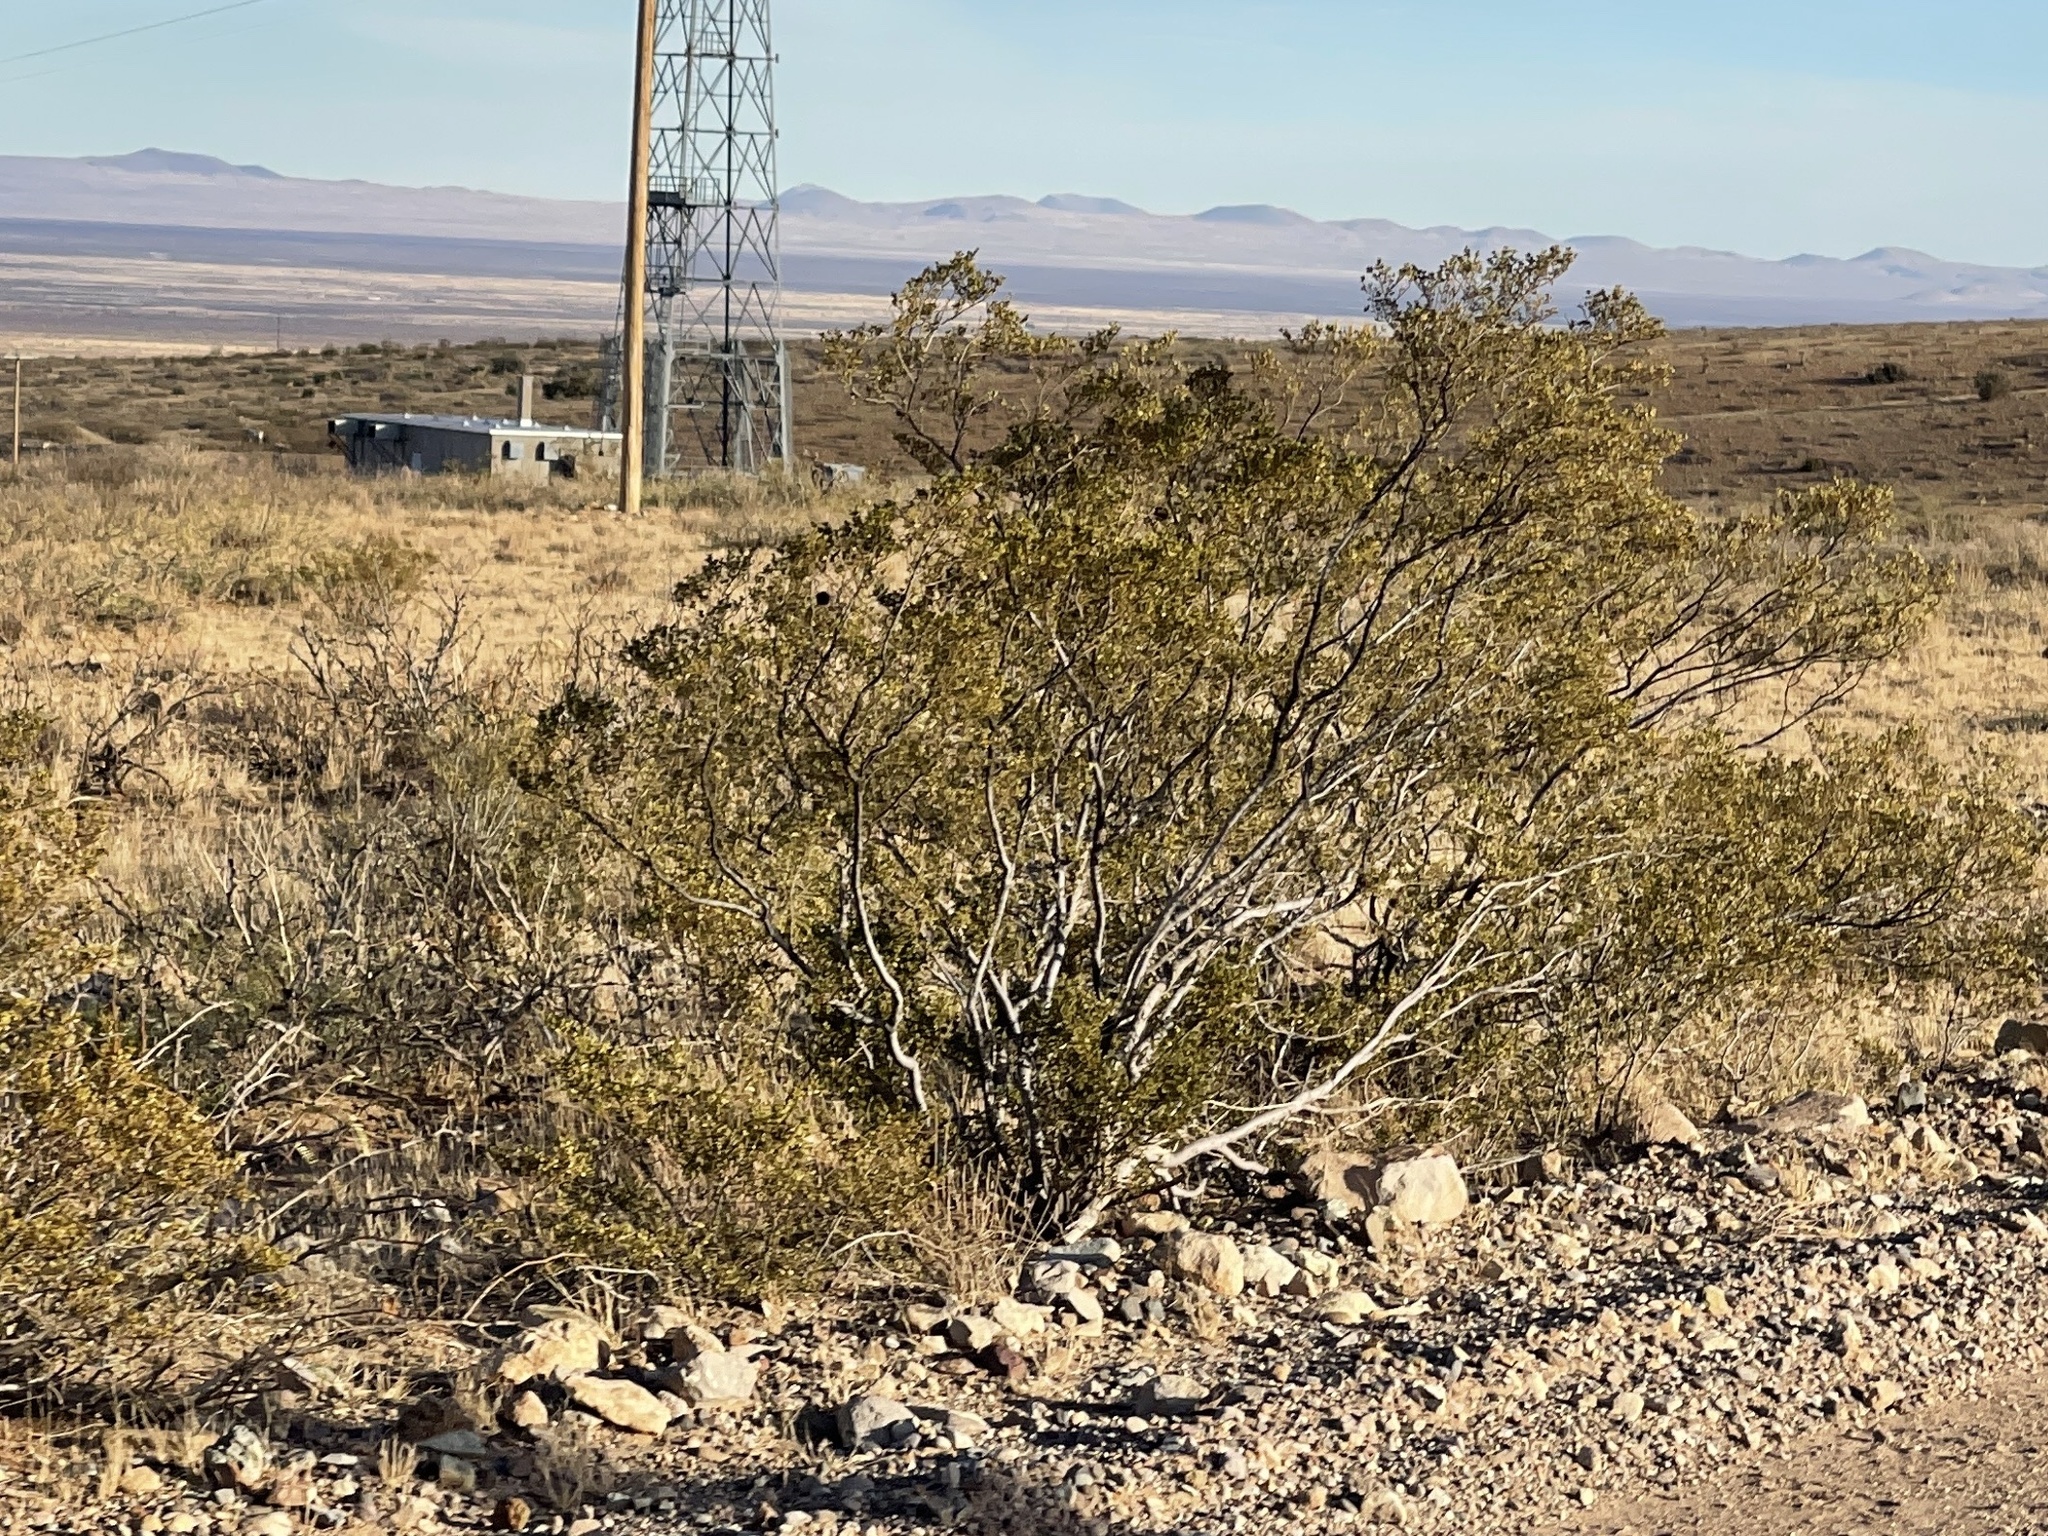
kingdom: Plantae
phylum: Tracheophyta
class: Magnoliopsida
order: Zygophyllales
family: Zygophyllaceae
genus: Larrea
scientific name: Larrea tridentata
